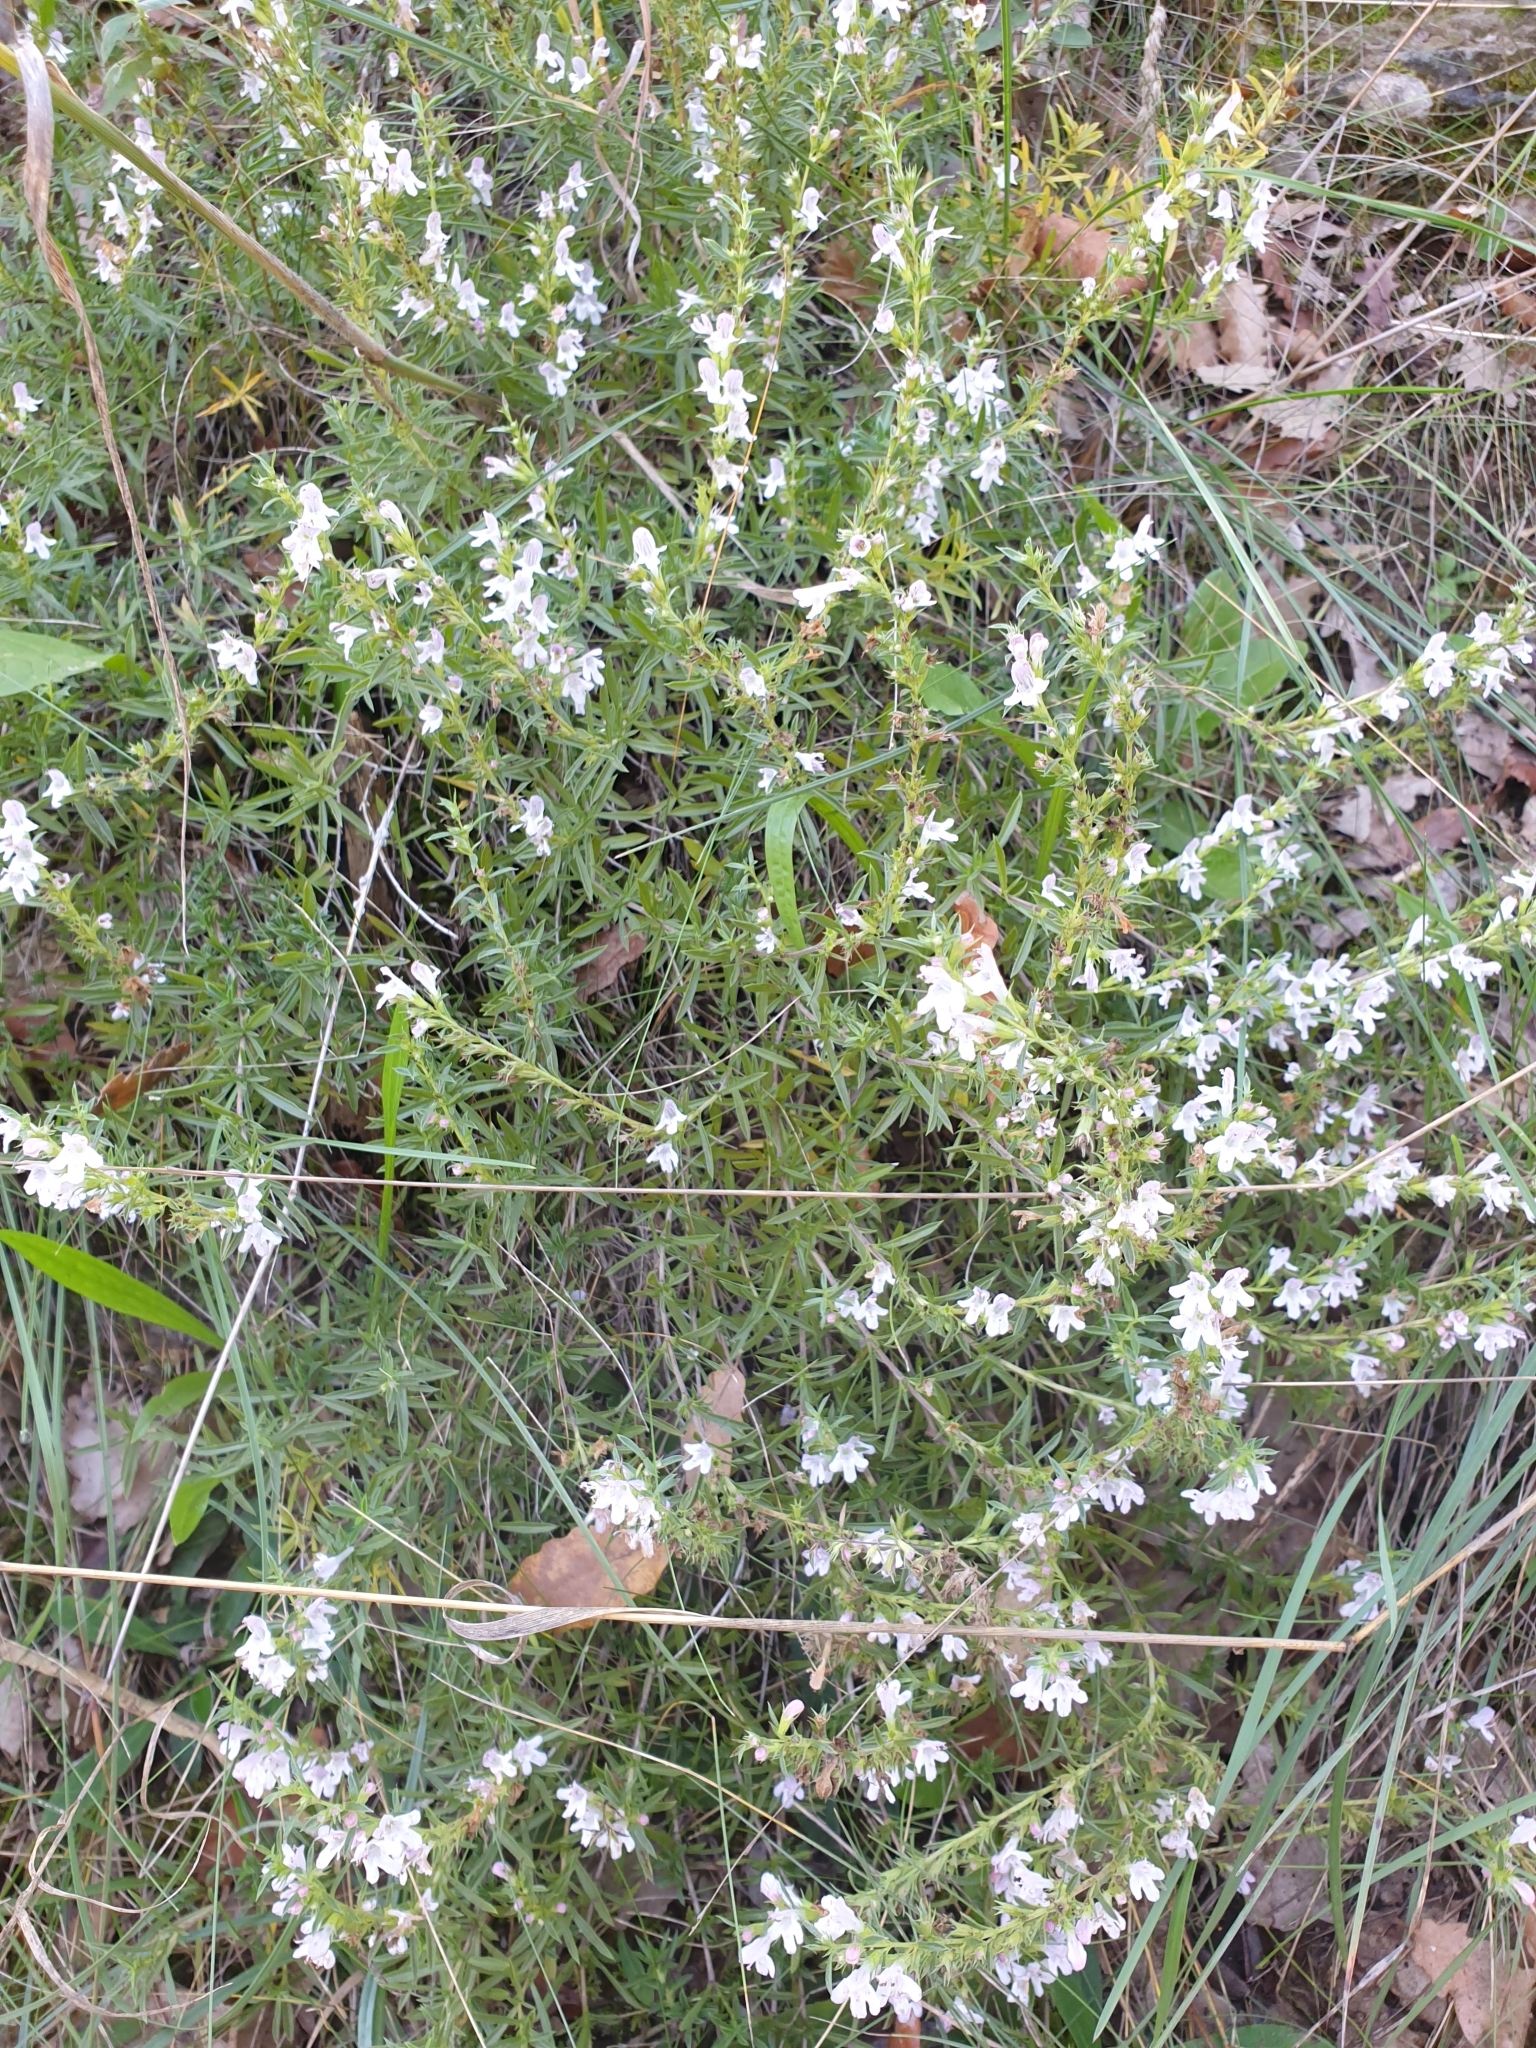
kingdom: Plantae
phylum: Tracheophyta
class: Magnoliopsida
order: Lamiales
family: Lamiaceae
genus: Satureja
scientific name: Satureja montana
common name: Winter savory
